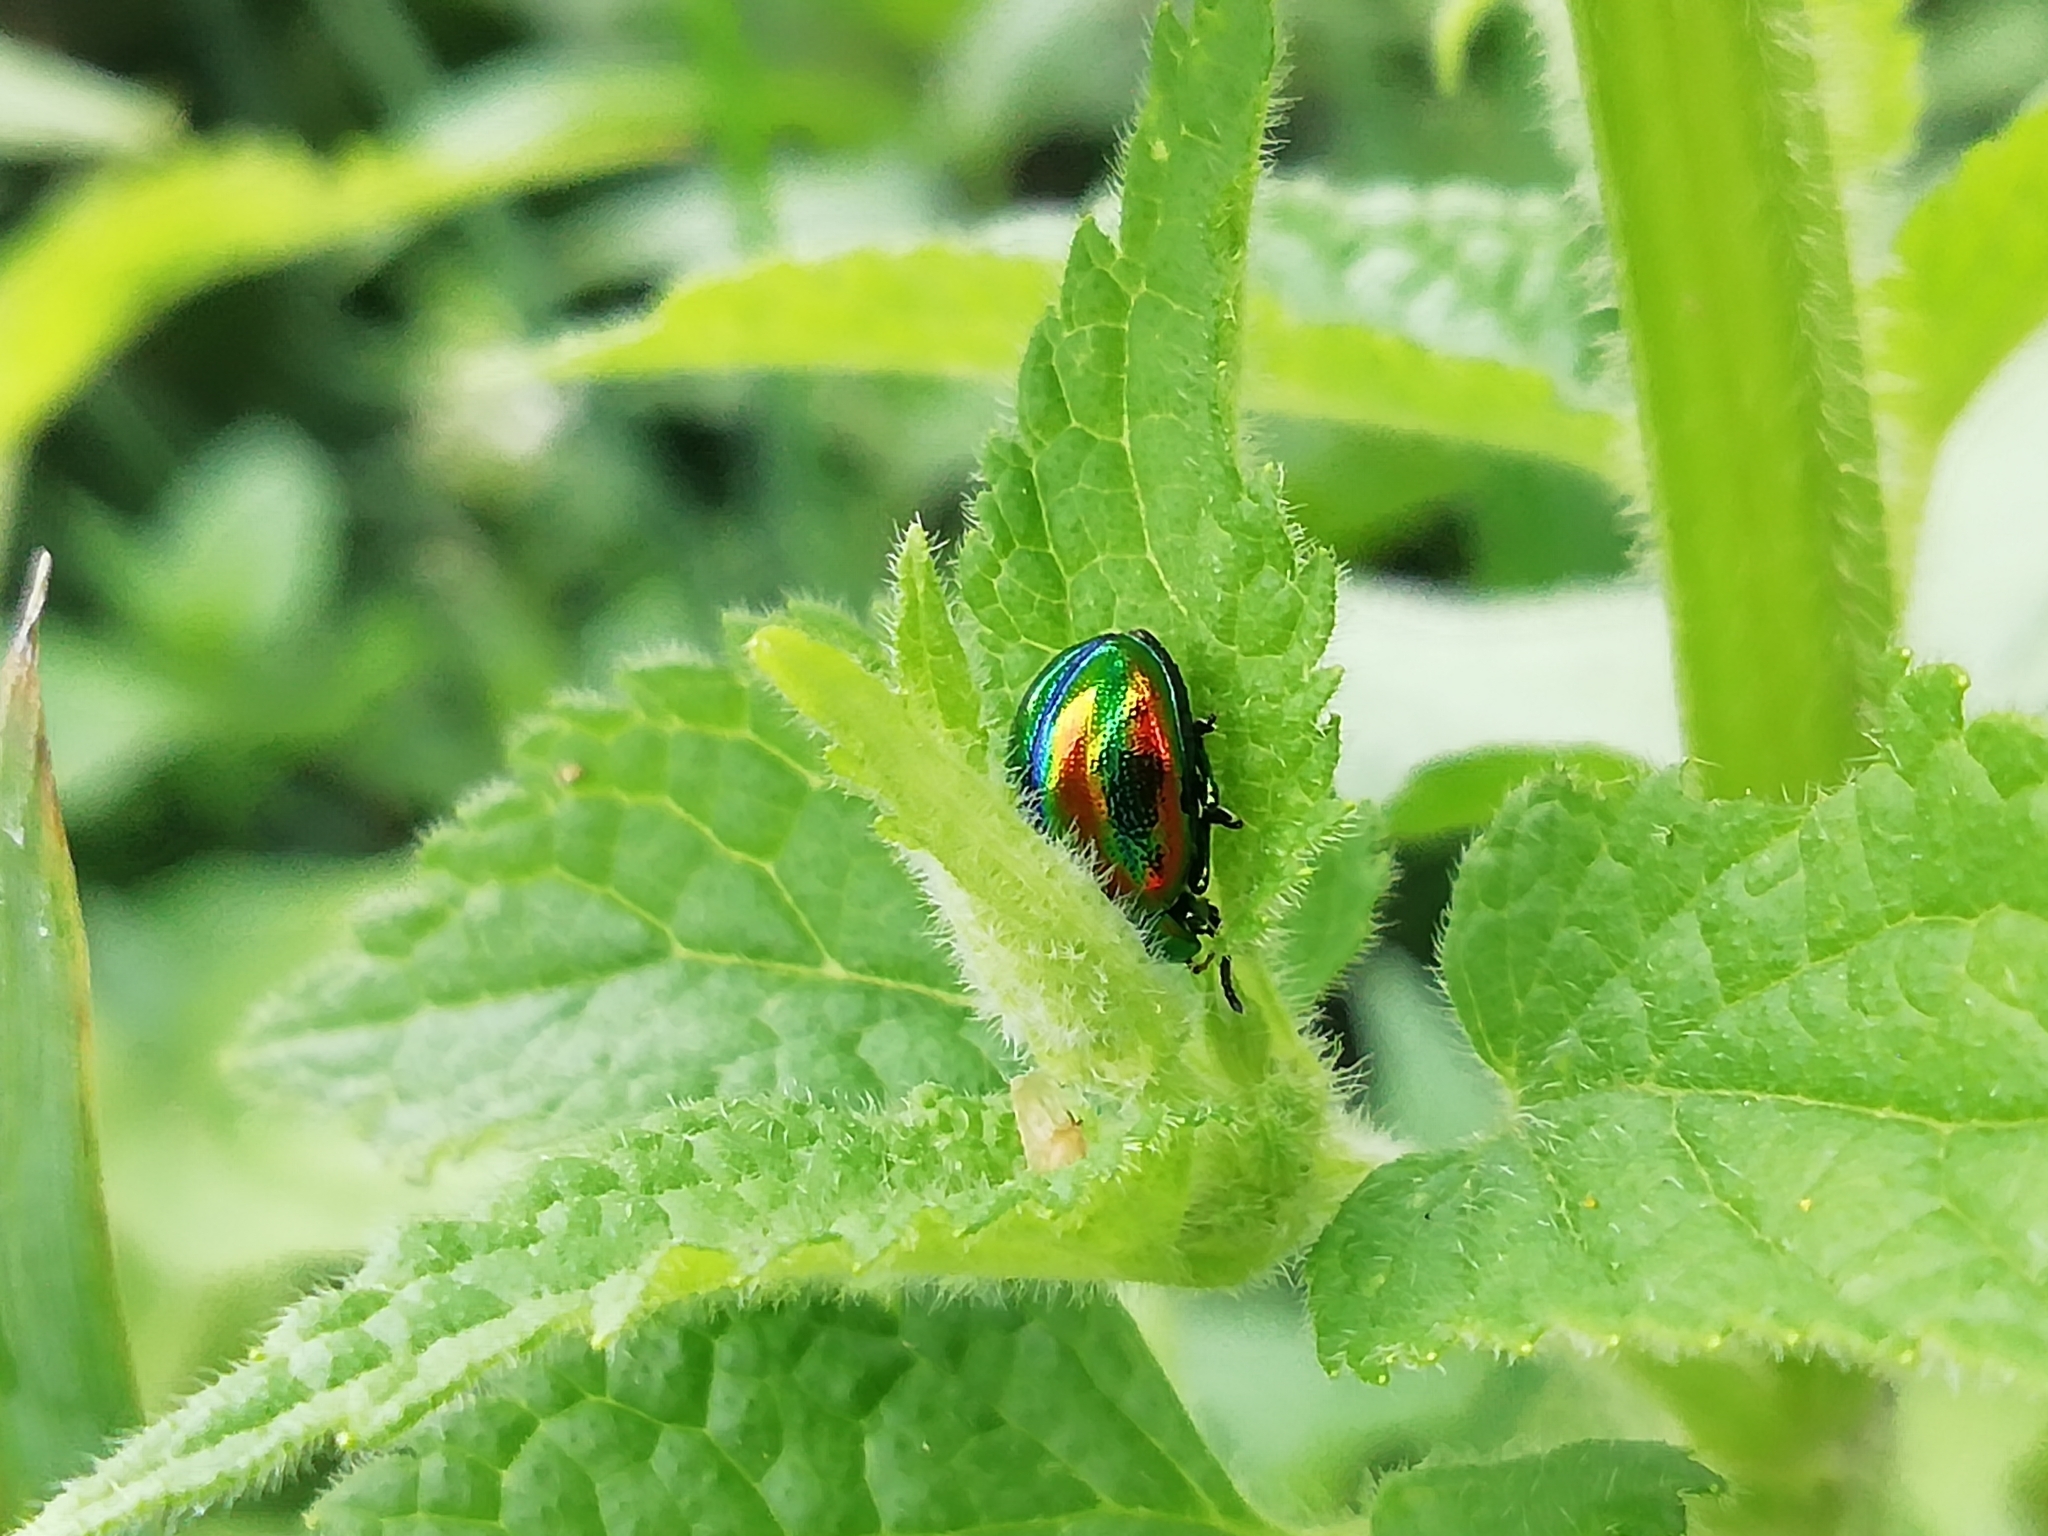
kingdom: Animalia
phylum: Arthropoda
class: Insecta
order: Coleoptera
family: Chrysomelidae
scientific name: Chrysomelidae
